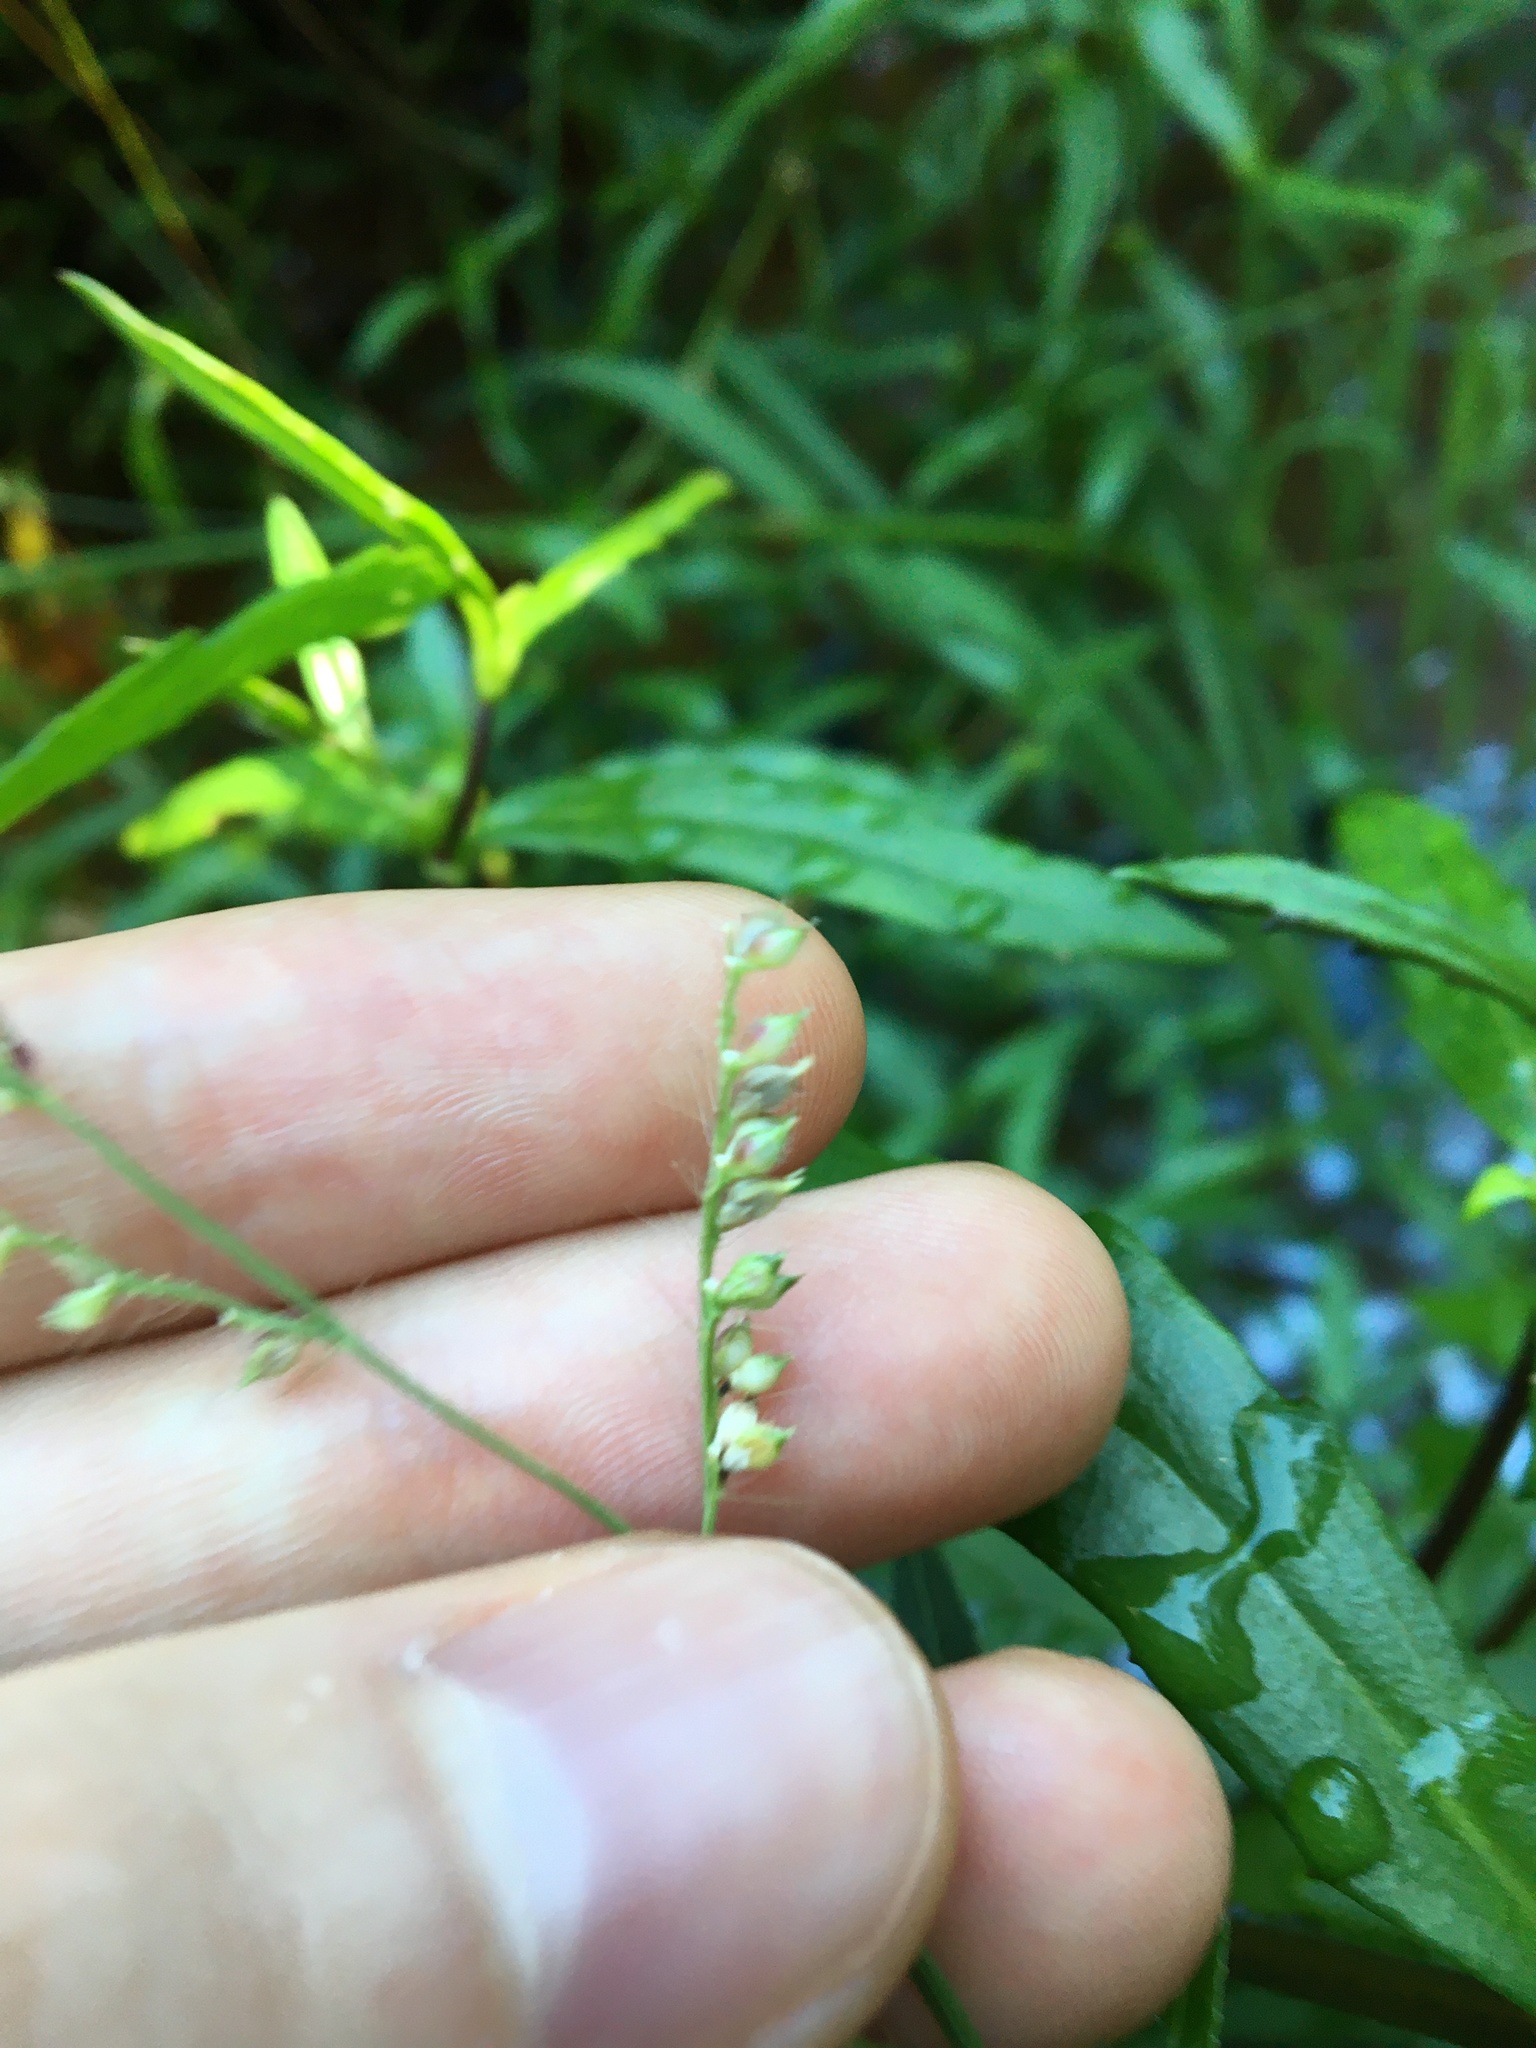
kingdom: Plantae
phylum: Tracheophyta
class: Liliopsida
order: Poales
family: Poaceae
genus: Echinochloa
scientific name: Echinochloa crus-galli
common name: Cockspur
